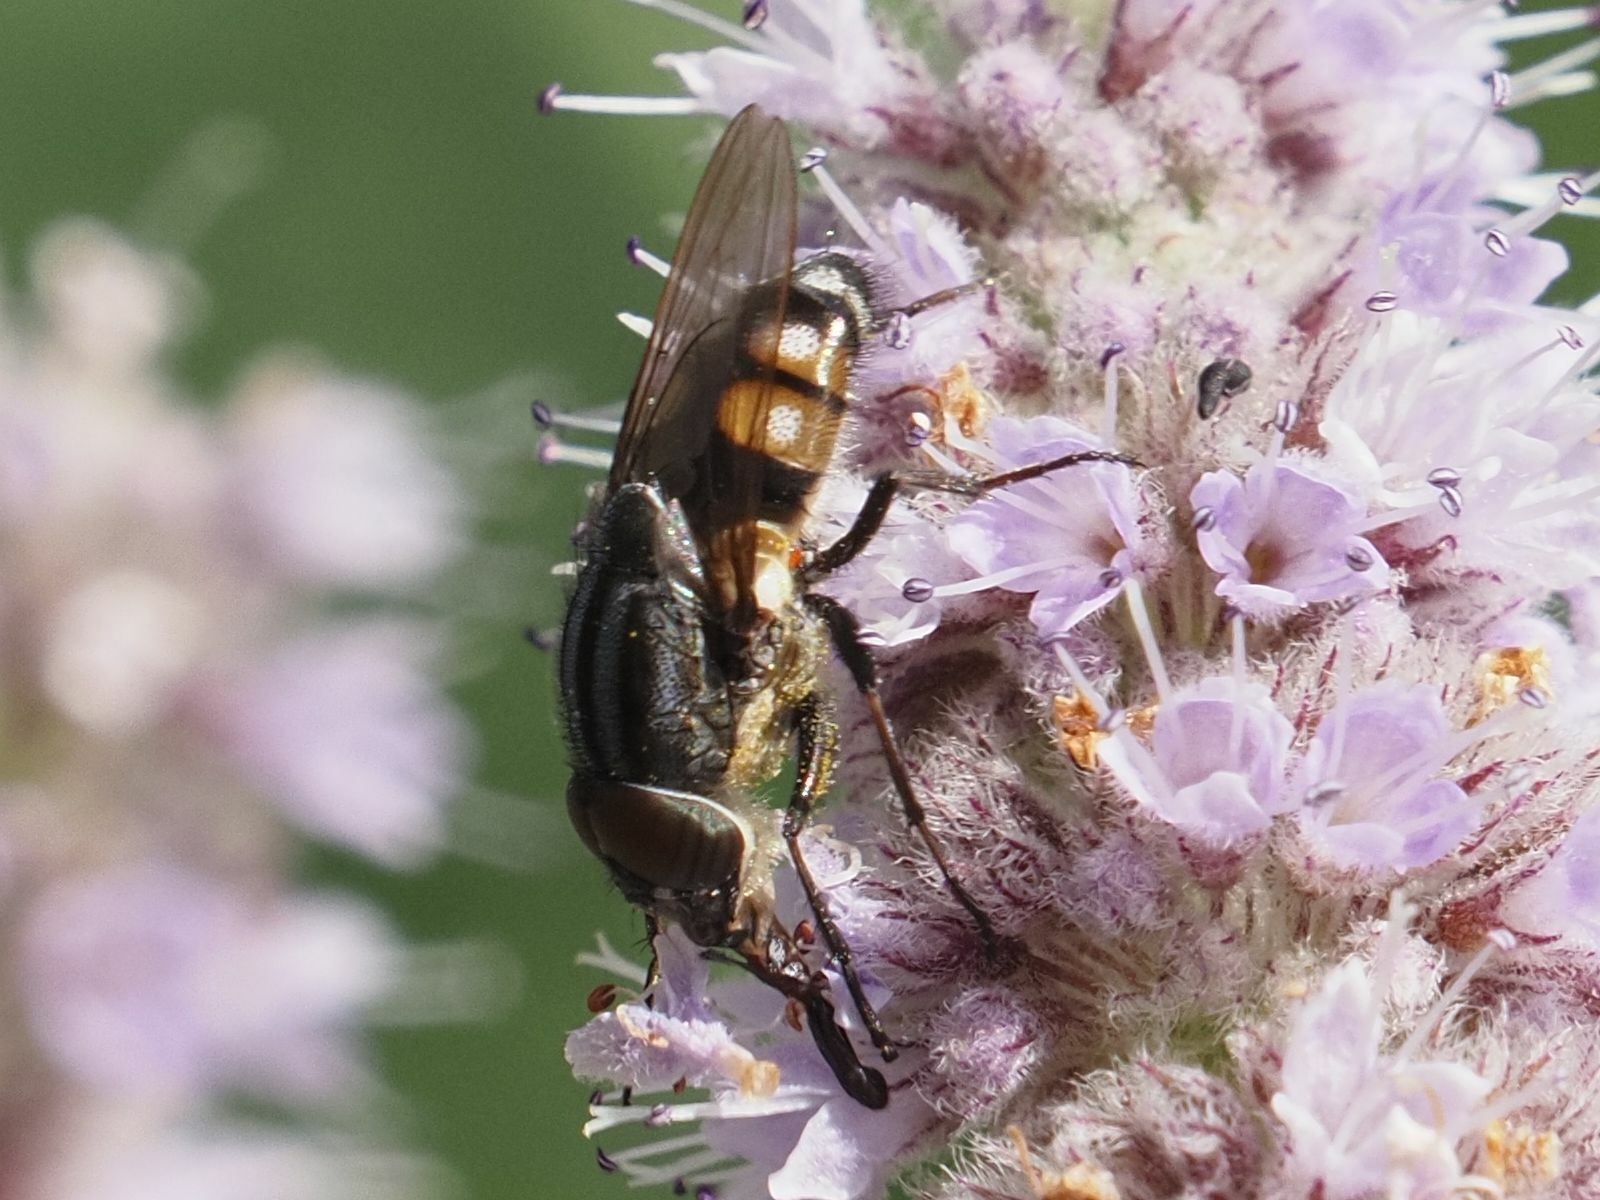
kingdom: Animalia
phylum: Arthropoda
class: Insecta
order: Diptera
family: Calliphoridae
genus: Stomorhina
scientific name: Stomorhina lunata
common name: Locust blowfly
